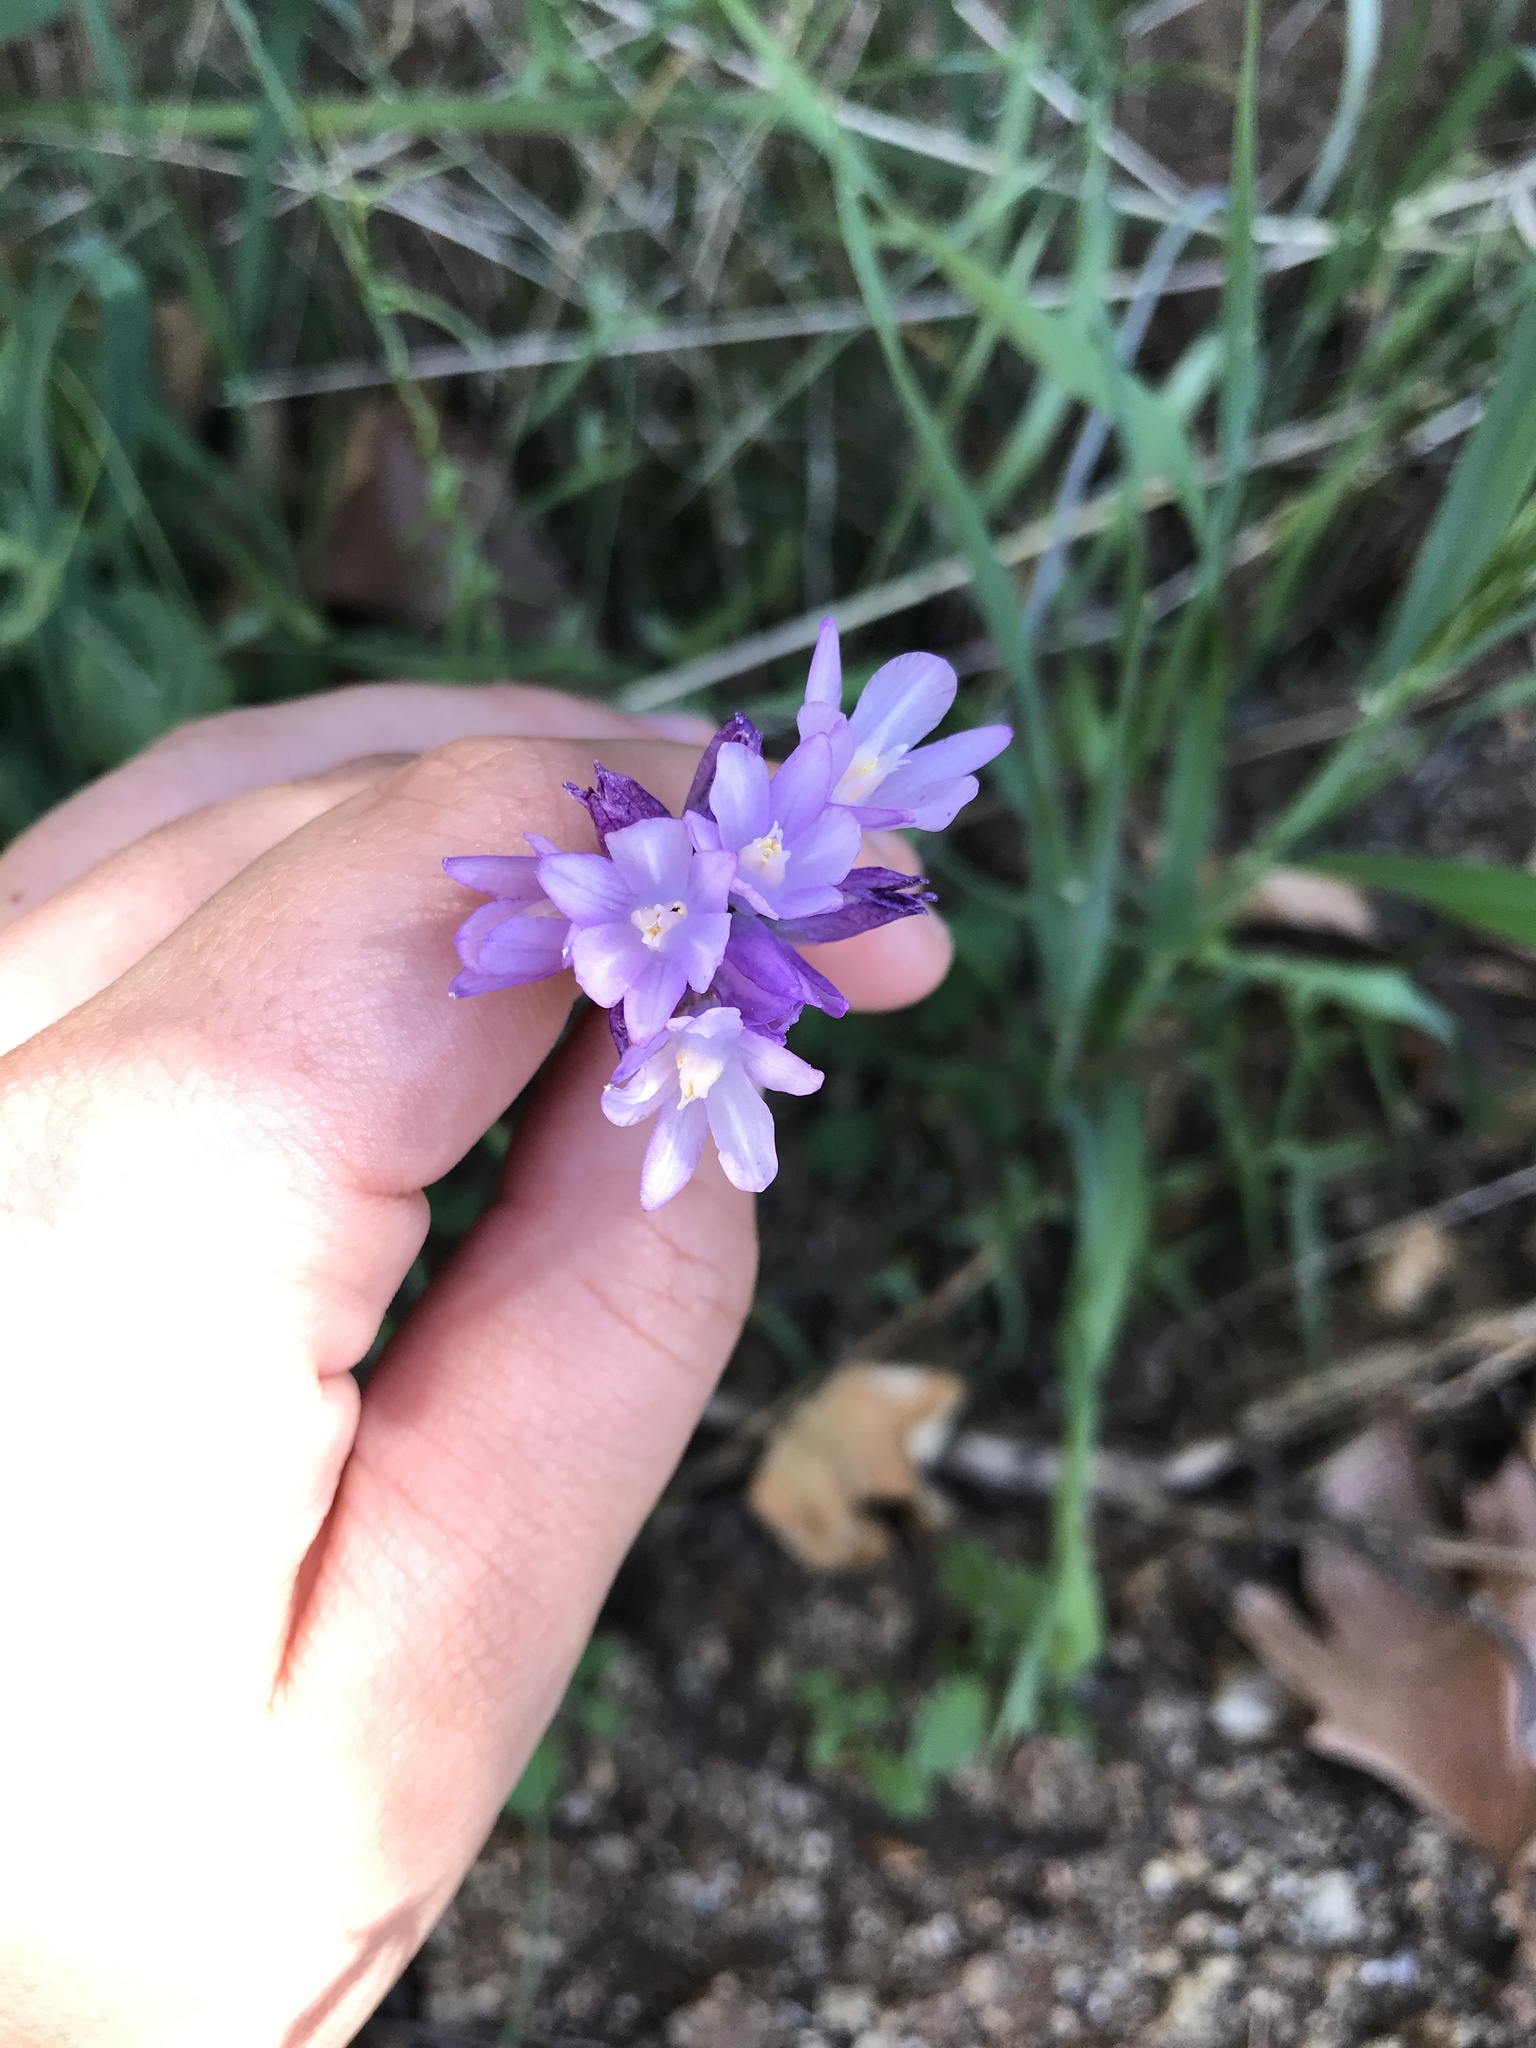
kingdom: Plantae
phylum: Tracheophyta
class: Liliopsida
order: Asparagales
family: Asparagaceae
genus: Dipterostemon
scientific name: Dipterostemon capitatus
